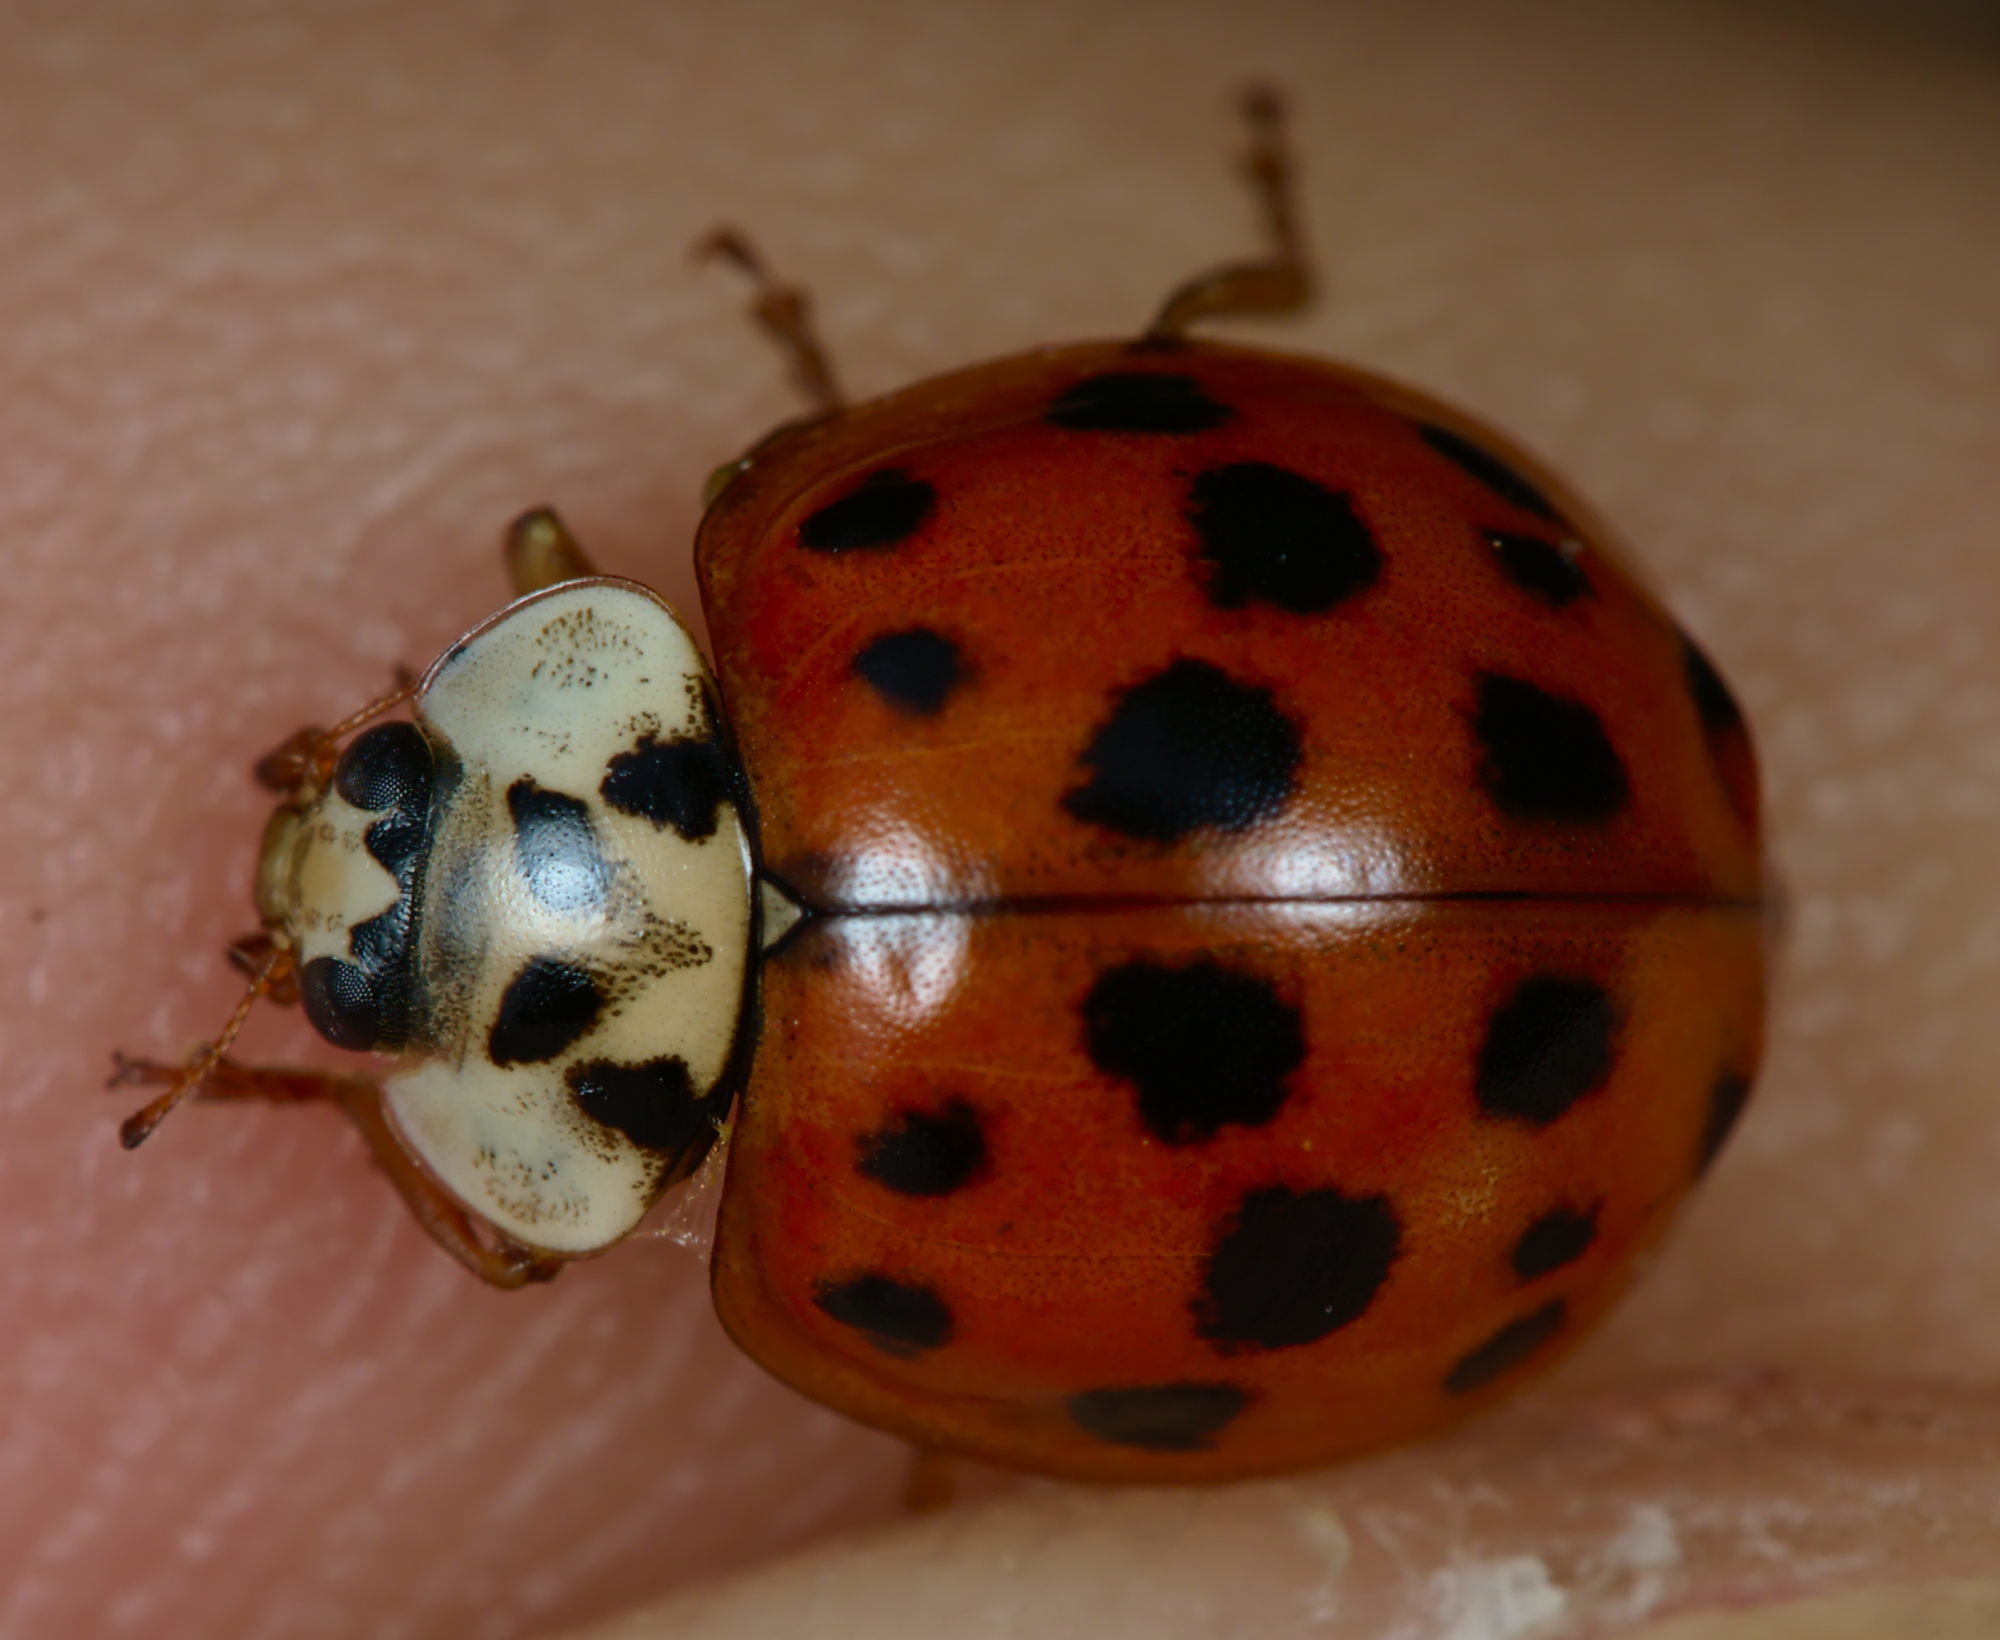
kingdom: Animalia
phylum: Arthropoda
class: Insecta
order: Coleoptera
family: Coccinellidae
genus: Harmonia
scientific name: Harmonia axyridis
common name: Harlequin ladybird
